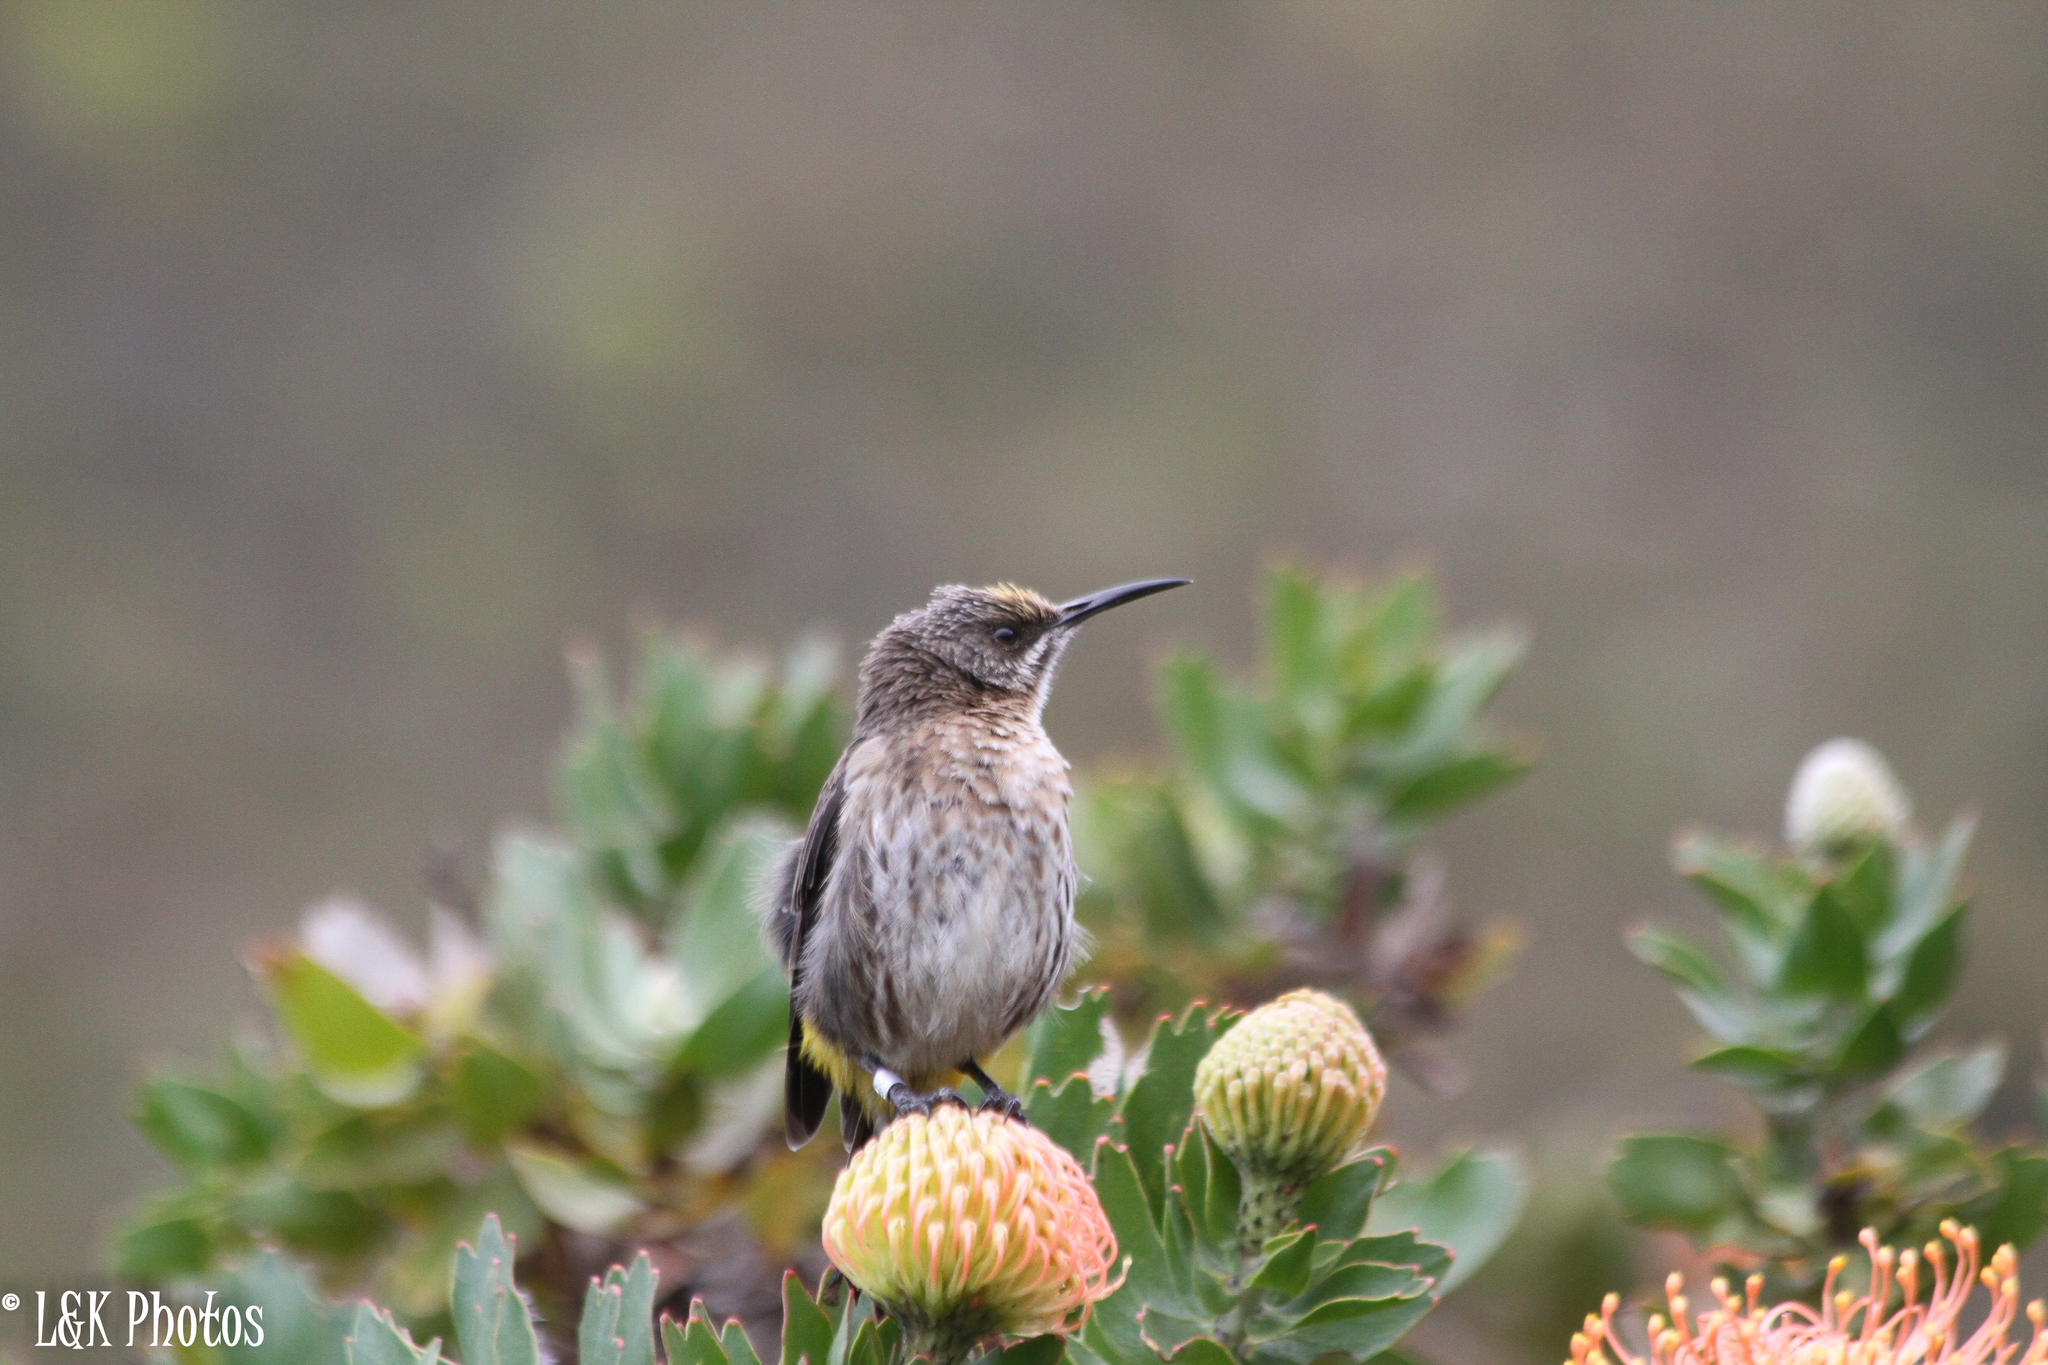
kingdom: Animalia
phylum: Chordata
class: Aves
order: Passeriformes
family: Promeropidae
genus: Promerops
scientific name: Promerops cafer
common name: Cape sugarbird
